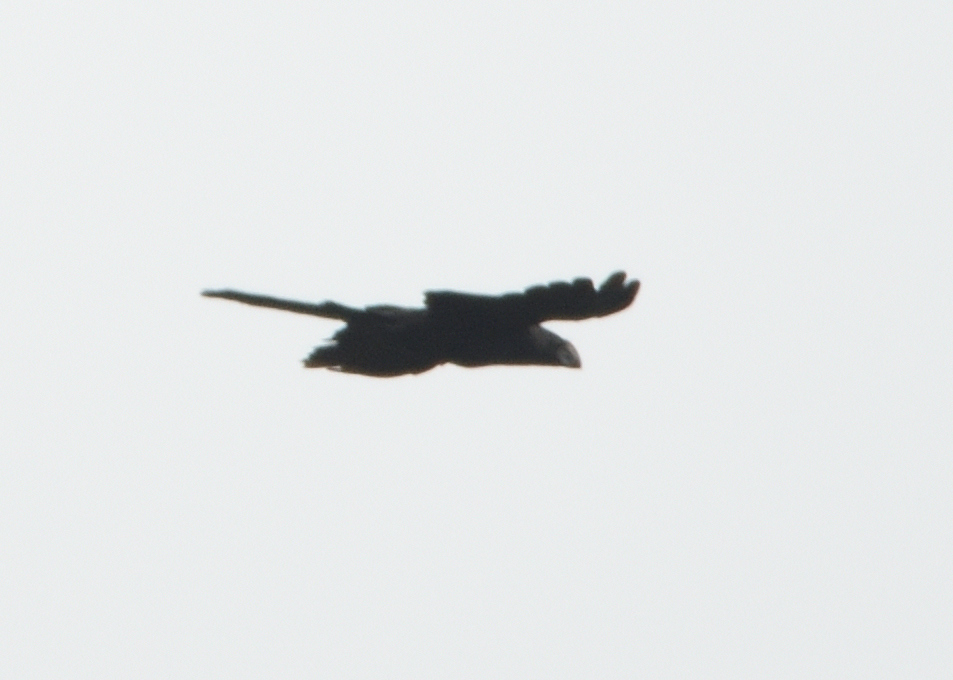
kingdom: Animalia
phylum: Chordata
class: Aves
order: Cuculiformes
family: Cuculidae
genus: Crotophaga
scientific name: Crotophaga ani
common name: Smooth-billed ani
